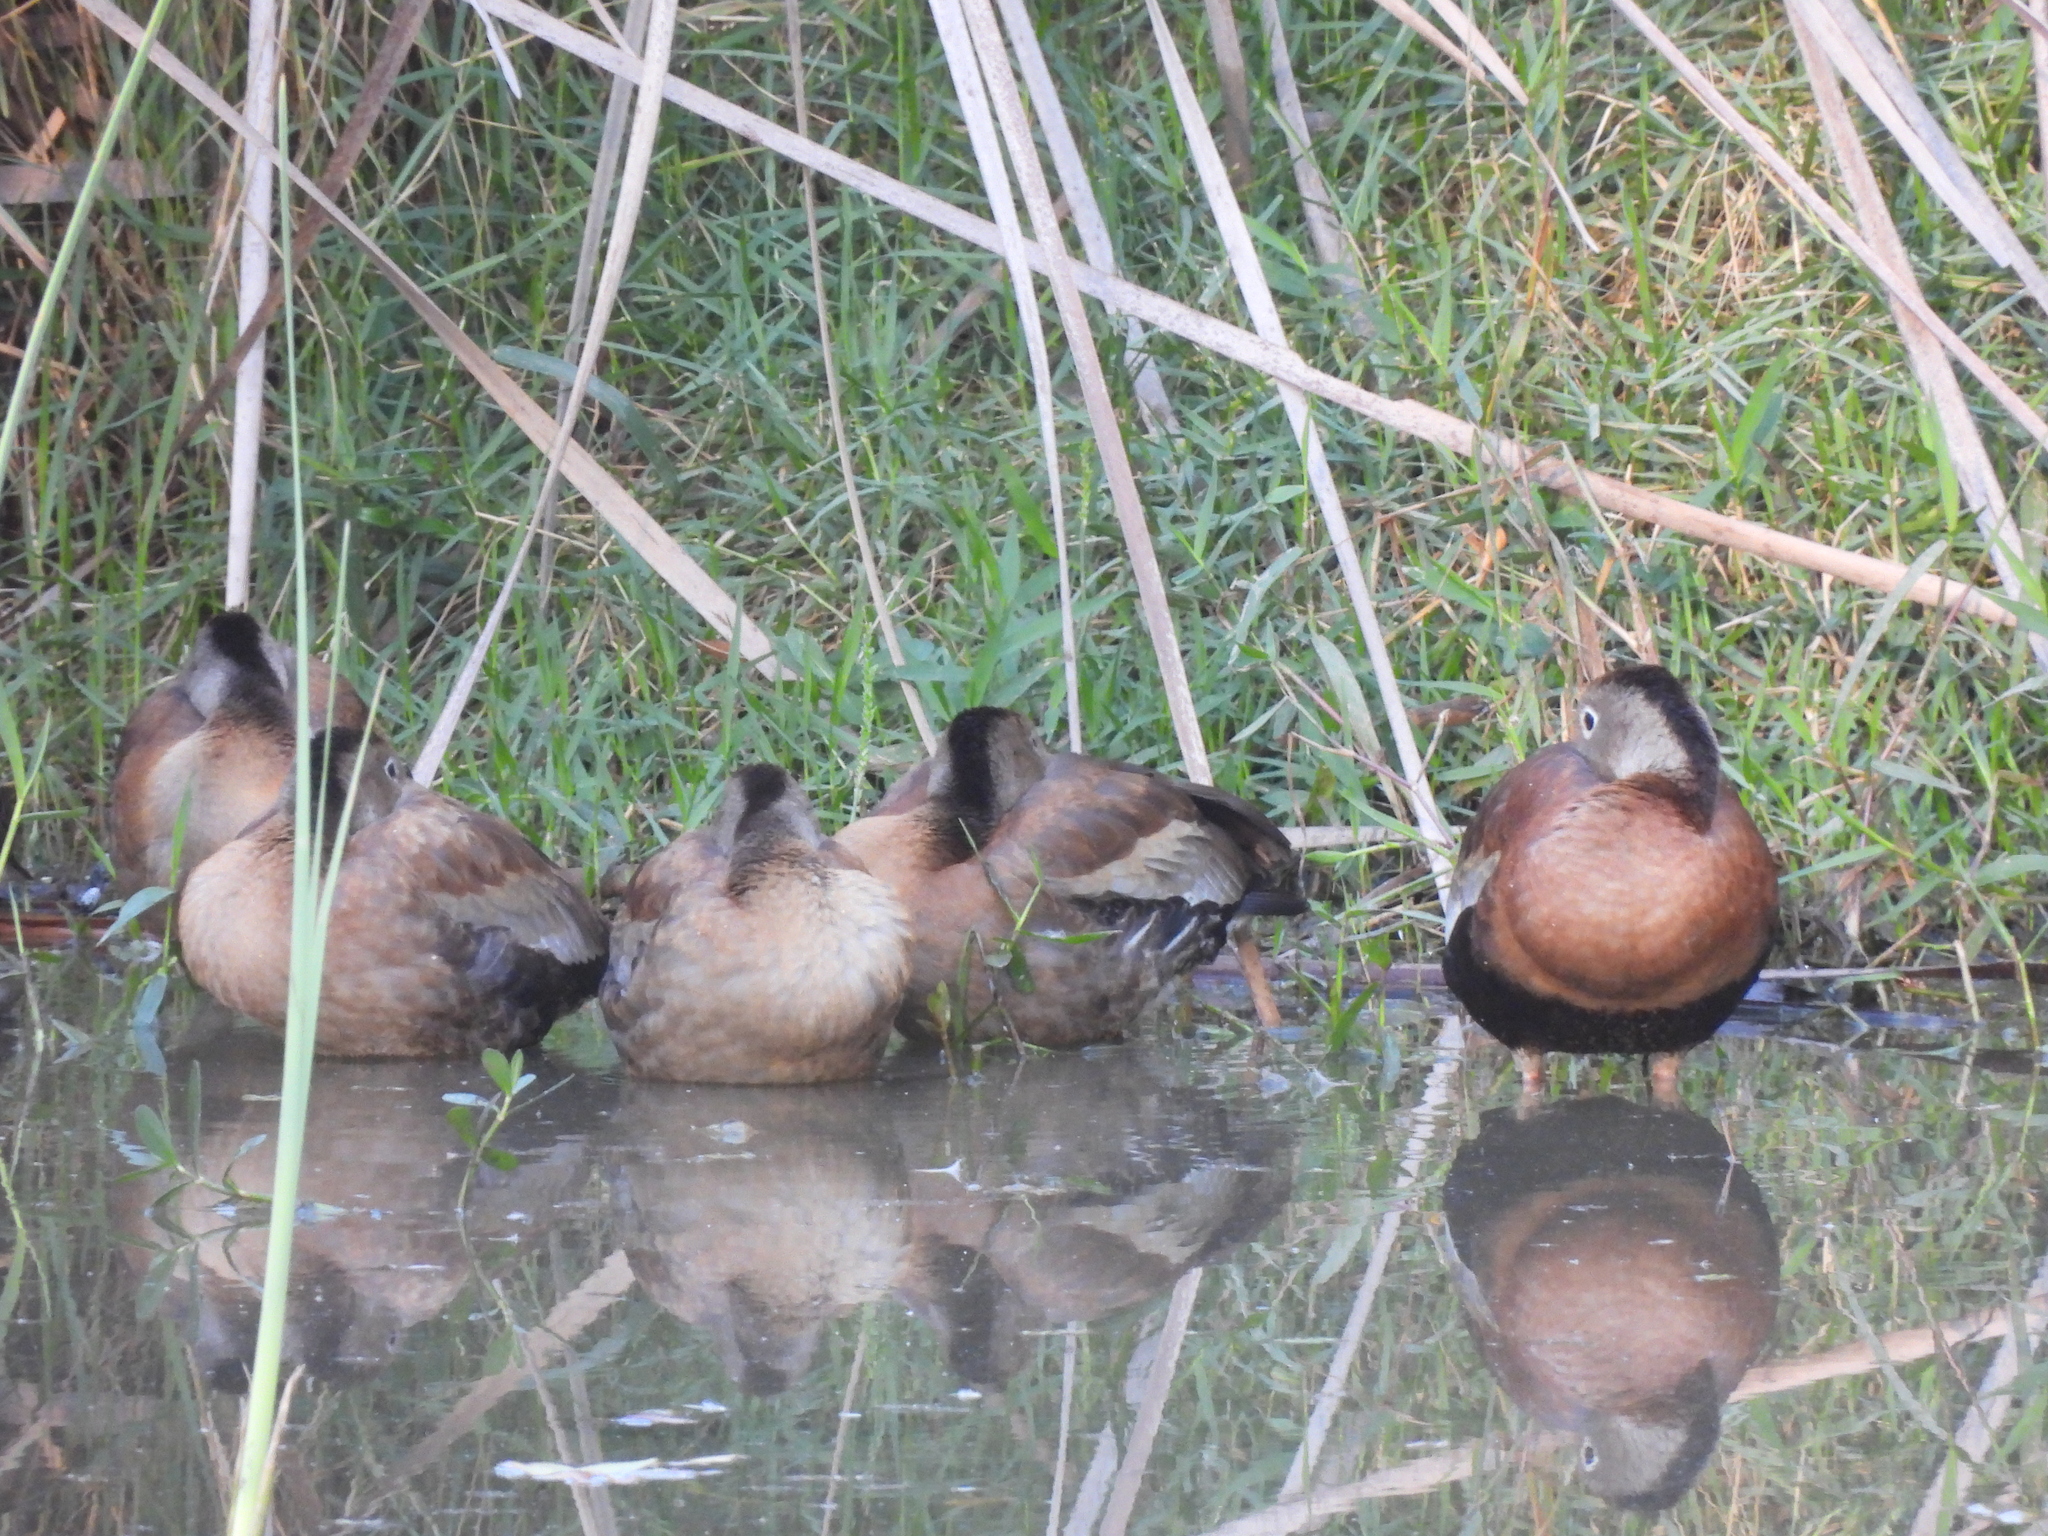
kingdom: Animalia
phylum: Chordata
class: Aves
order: Anseriformes
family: Anatidae
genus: Dendrocygna
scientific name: Dendrocygna autumnalis
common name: Black-bellied whistling duck
